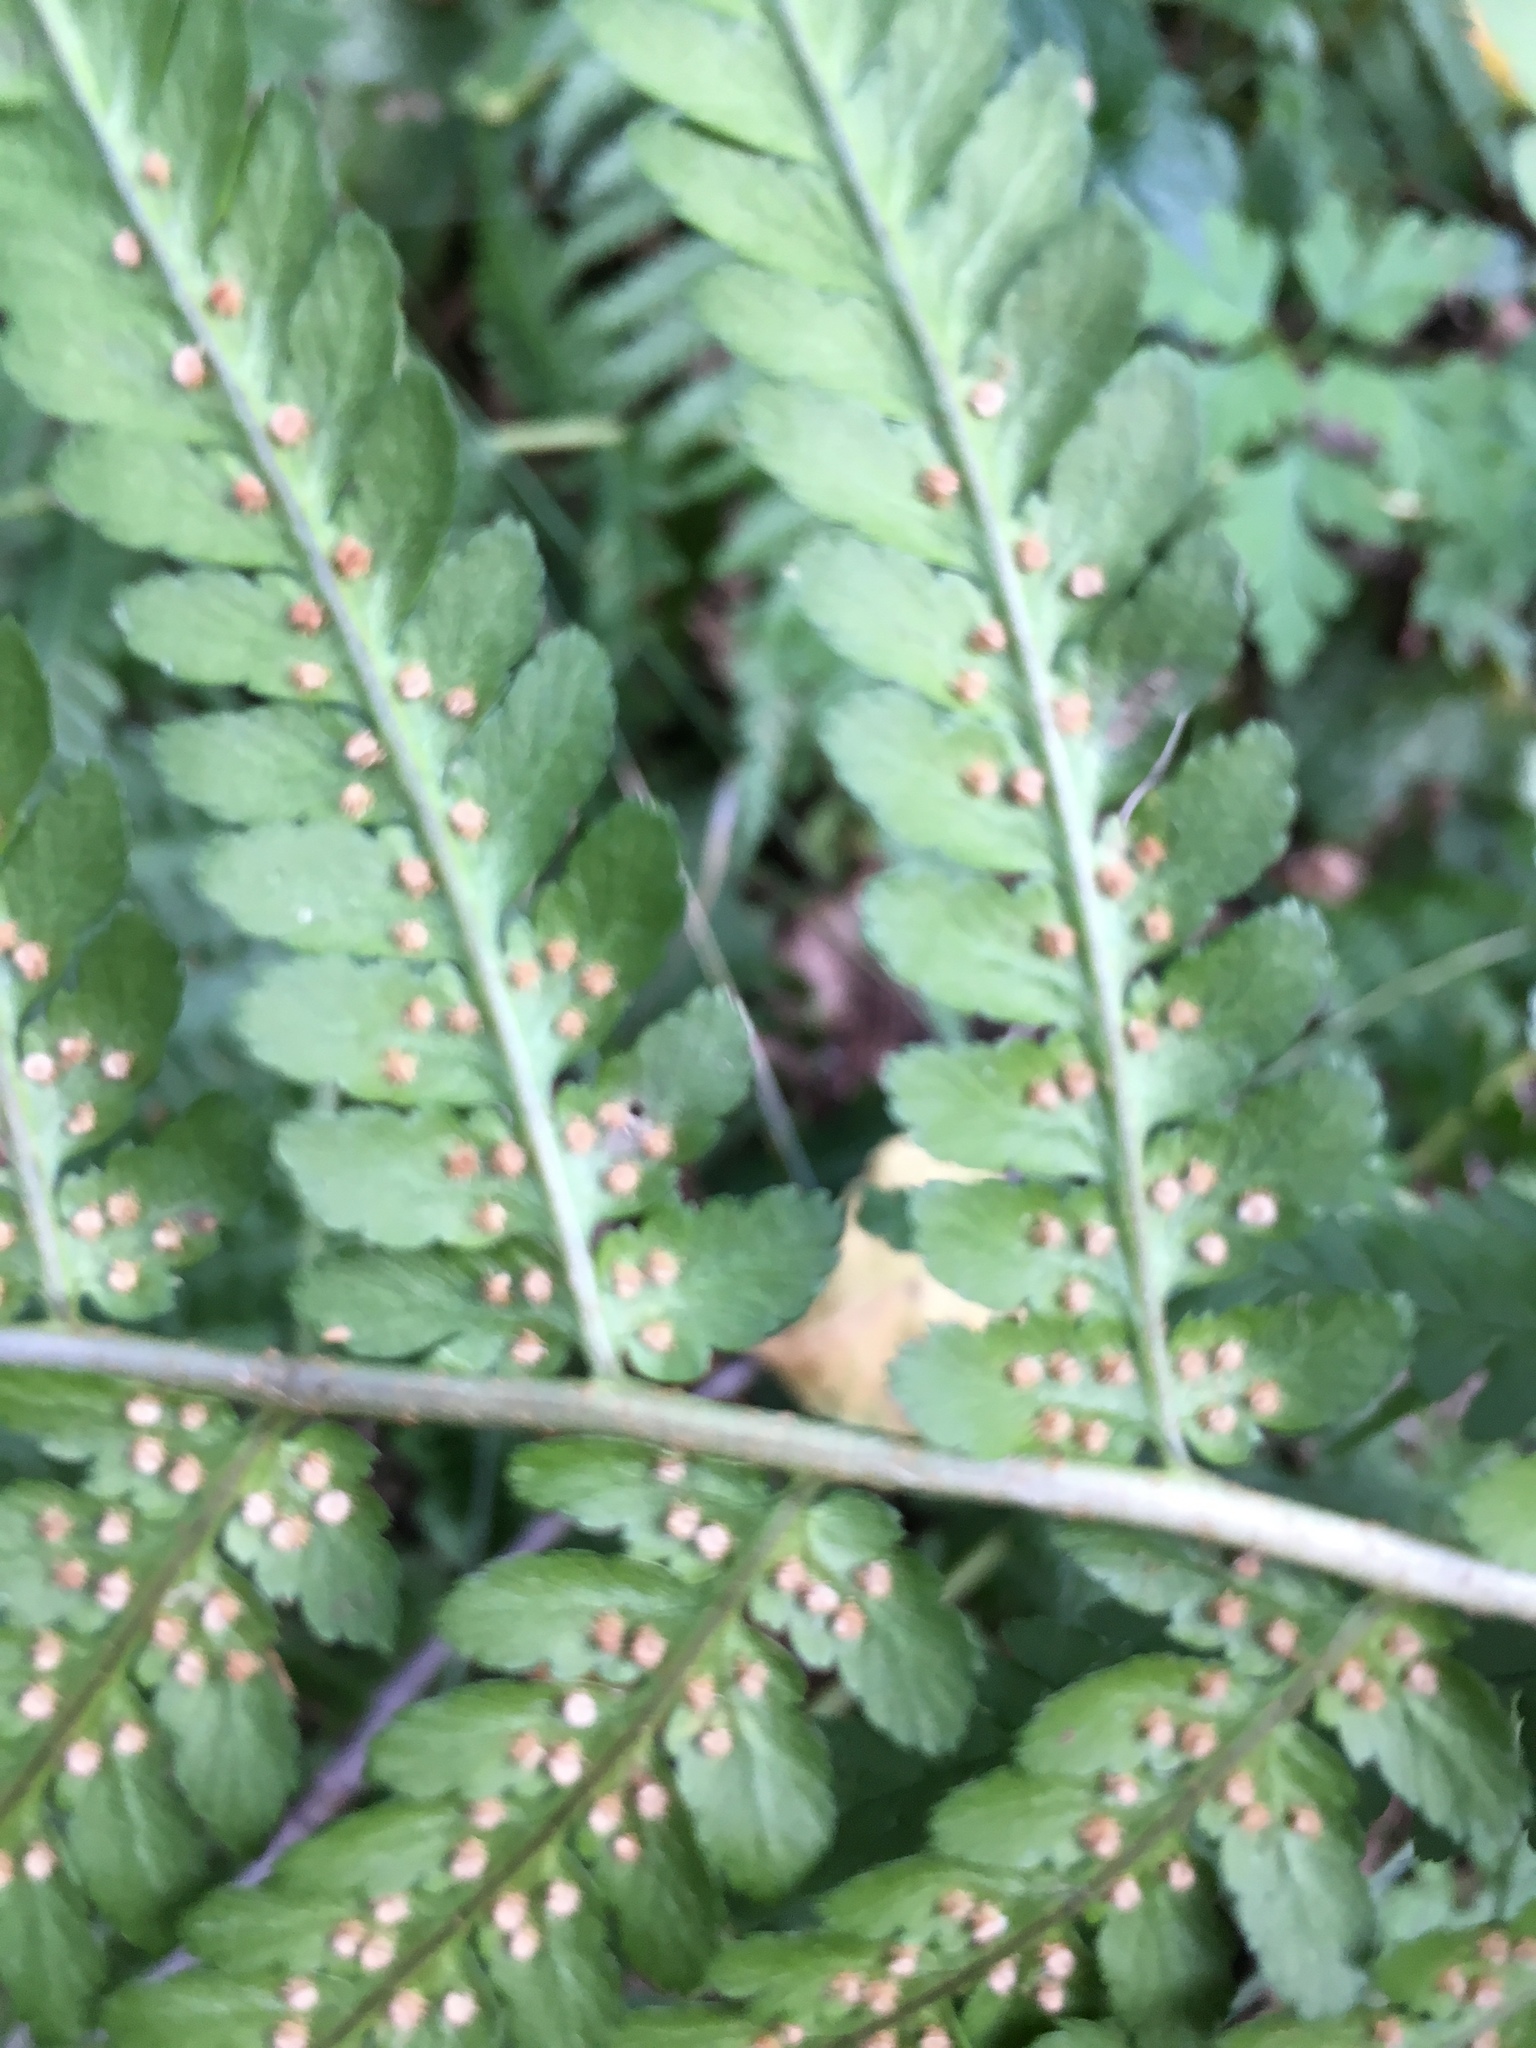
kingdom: Plantae
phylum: Tracheophyta
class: Polypodiopsida
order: Polypodiales
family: Dryopteridaceae
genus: Dryopteris
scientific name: Dryopteris filix-mas
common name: Male fern
